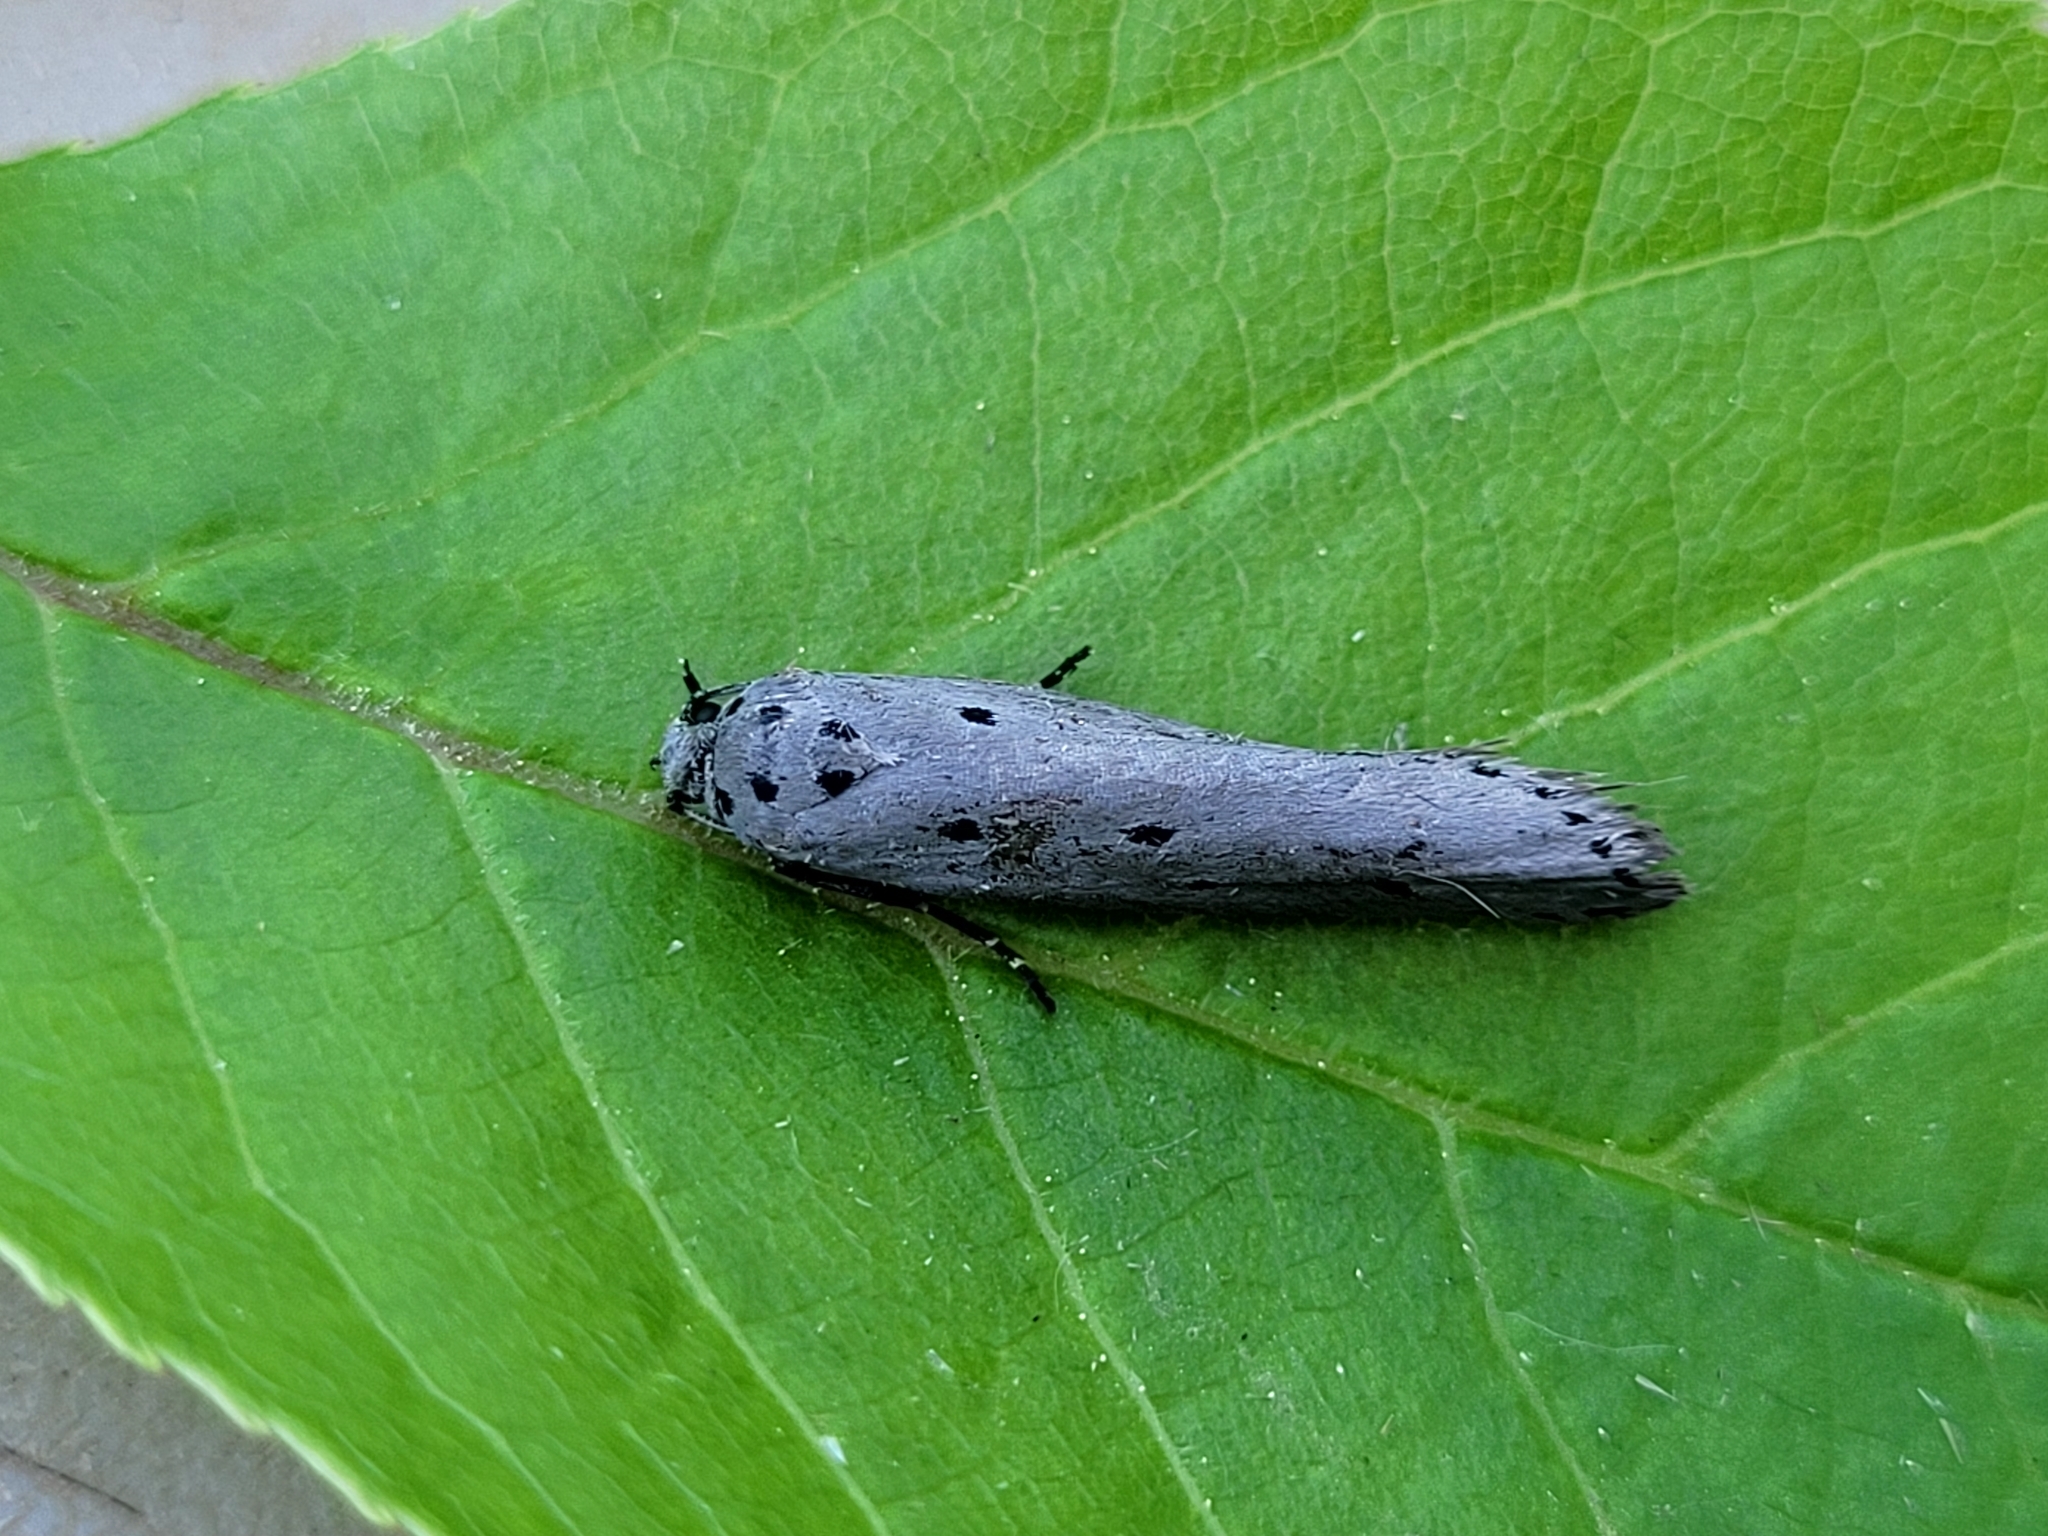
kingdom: Animalia
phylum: Arthropoda
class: Insecta
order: Lepidoptera
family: Ethmiidae
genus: Ethmia
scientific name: Ethmia monticola
